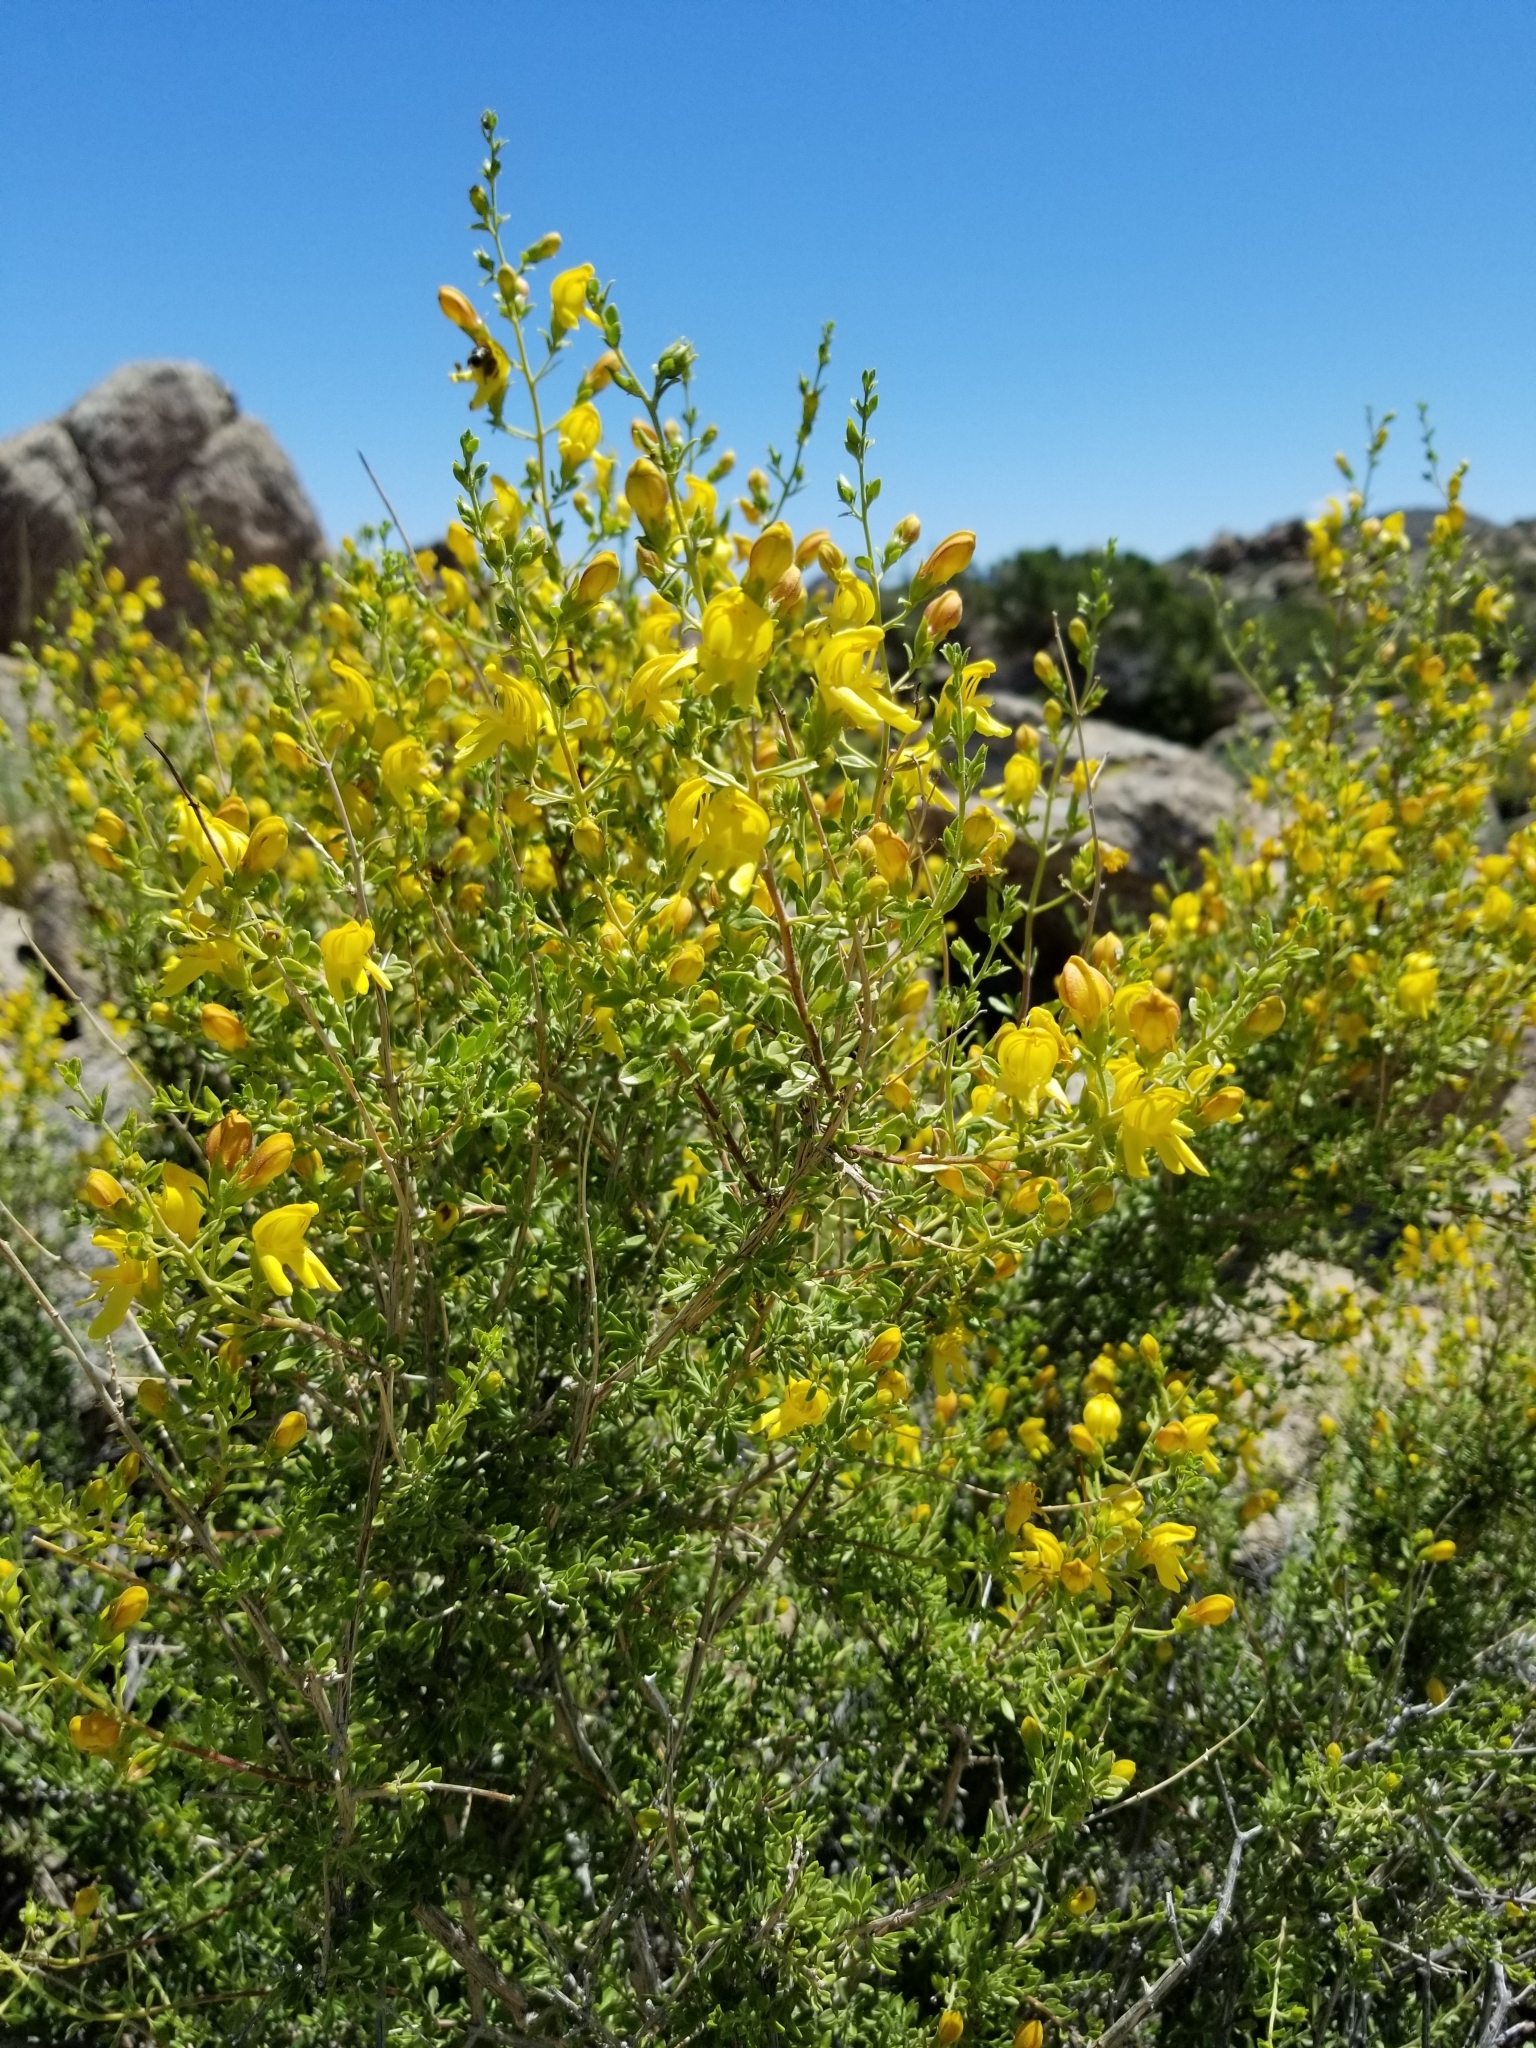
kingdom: Plantae
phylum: Tracheophyta
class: Magnoliopsida
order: Lamiales
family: Plantaginaceae
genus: Keckiella
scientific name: Keckiella antirrhinoides
